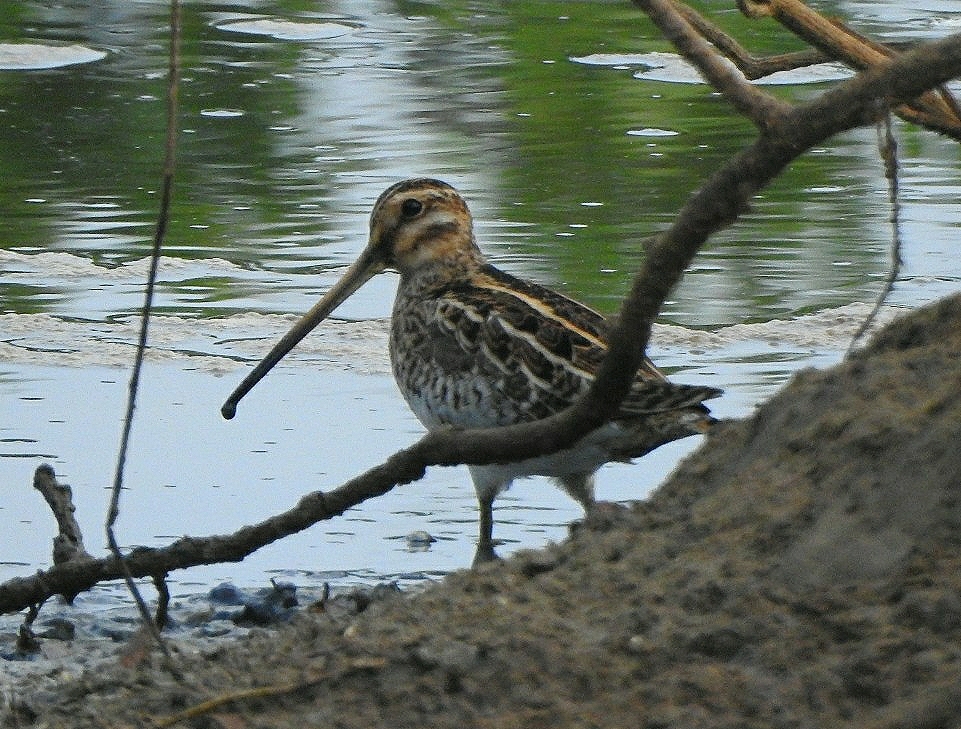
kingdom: Animalia
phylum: Chordata
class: Aves
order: Charadriiformes
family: Scolopacidae
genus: Gallinago
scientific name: Gallinago gallinago
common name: Common snipe
